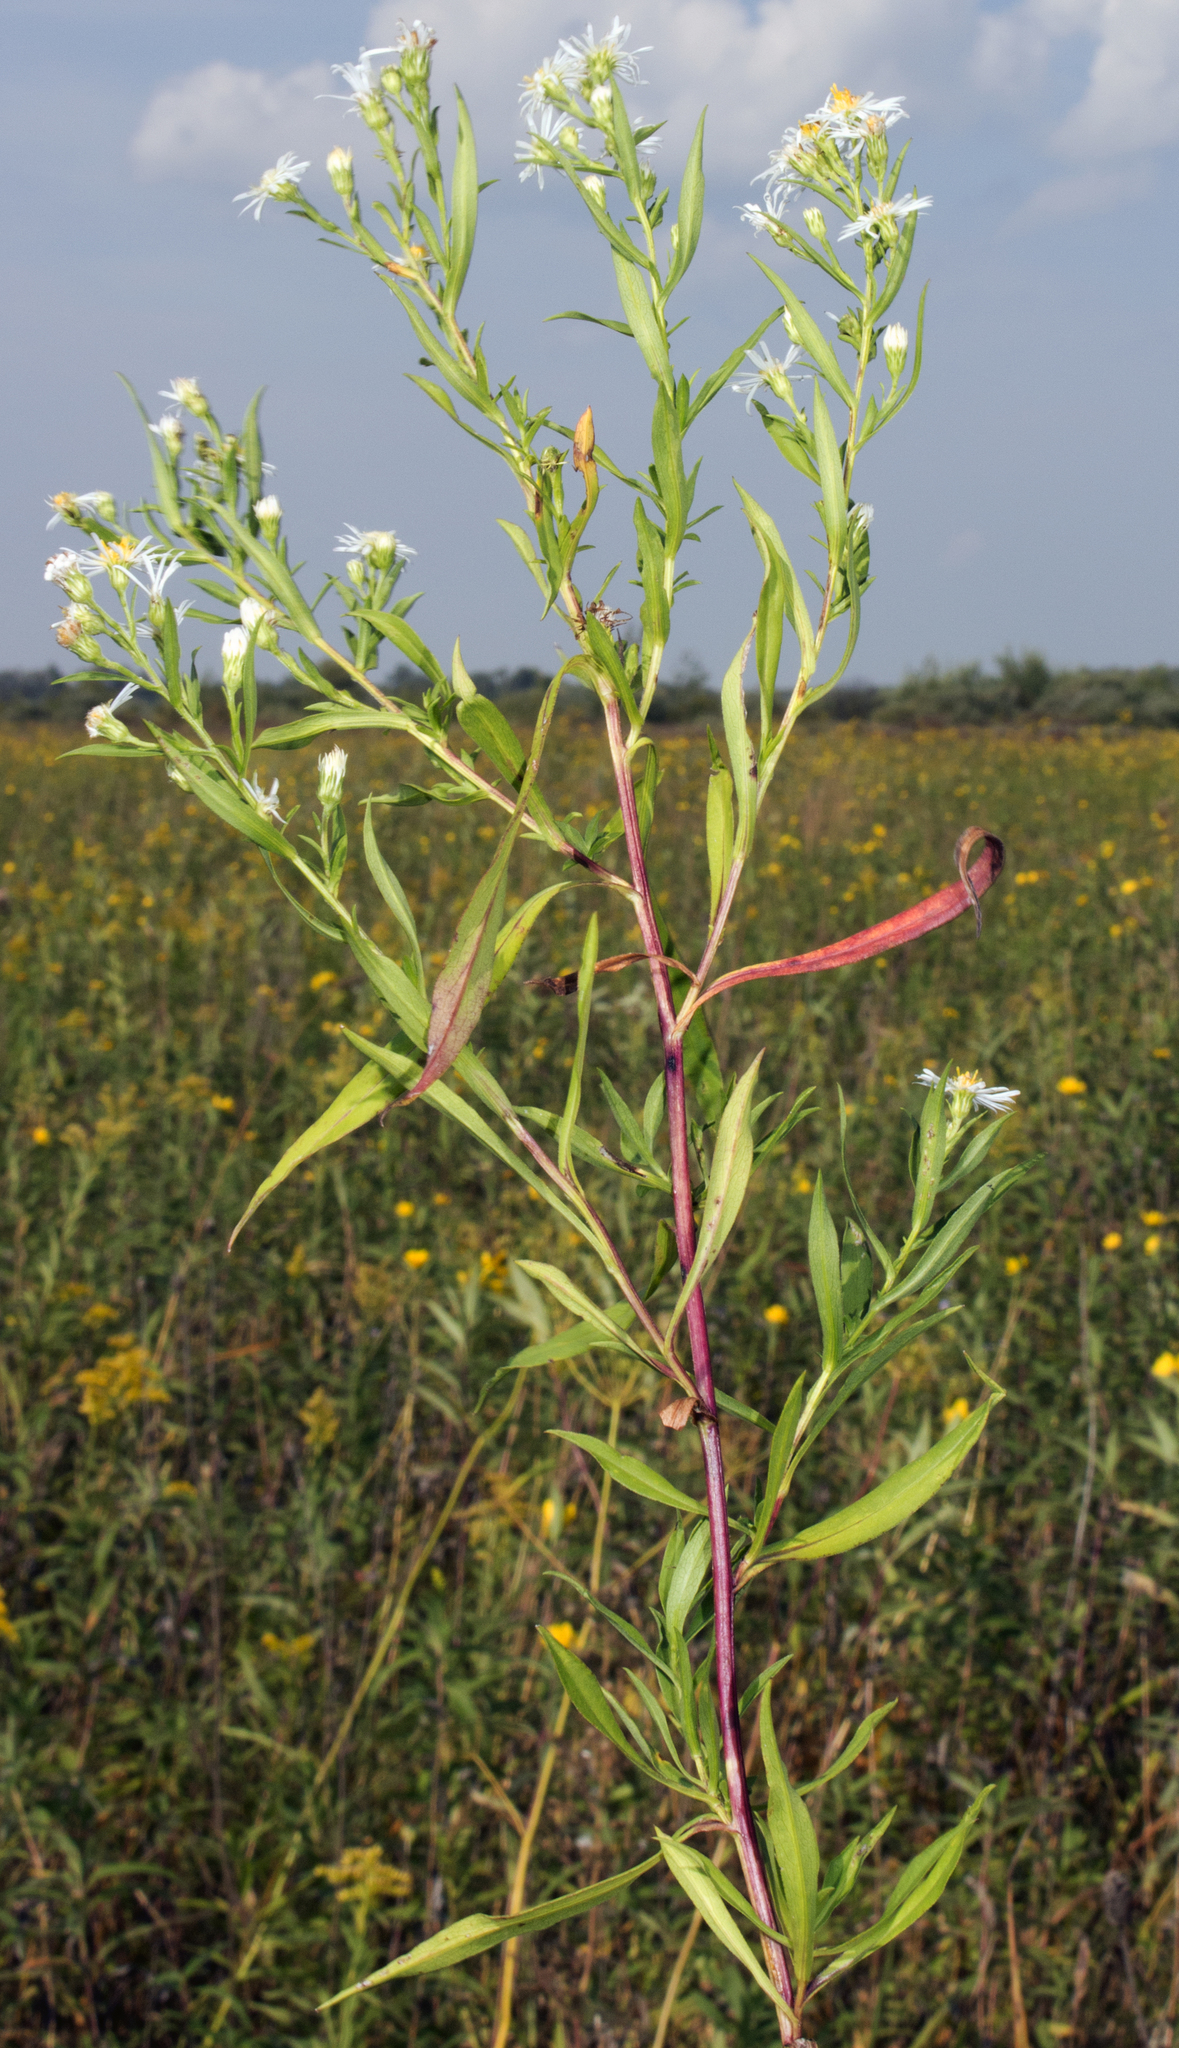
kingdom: Plantae
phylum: Tracheophyta
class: Magnoliopsida
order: Asterales
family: Asteraceae
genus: Symphyotrichum
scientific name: Symphyotrichum lanceolatum
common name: Panicled aster
